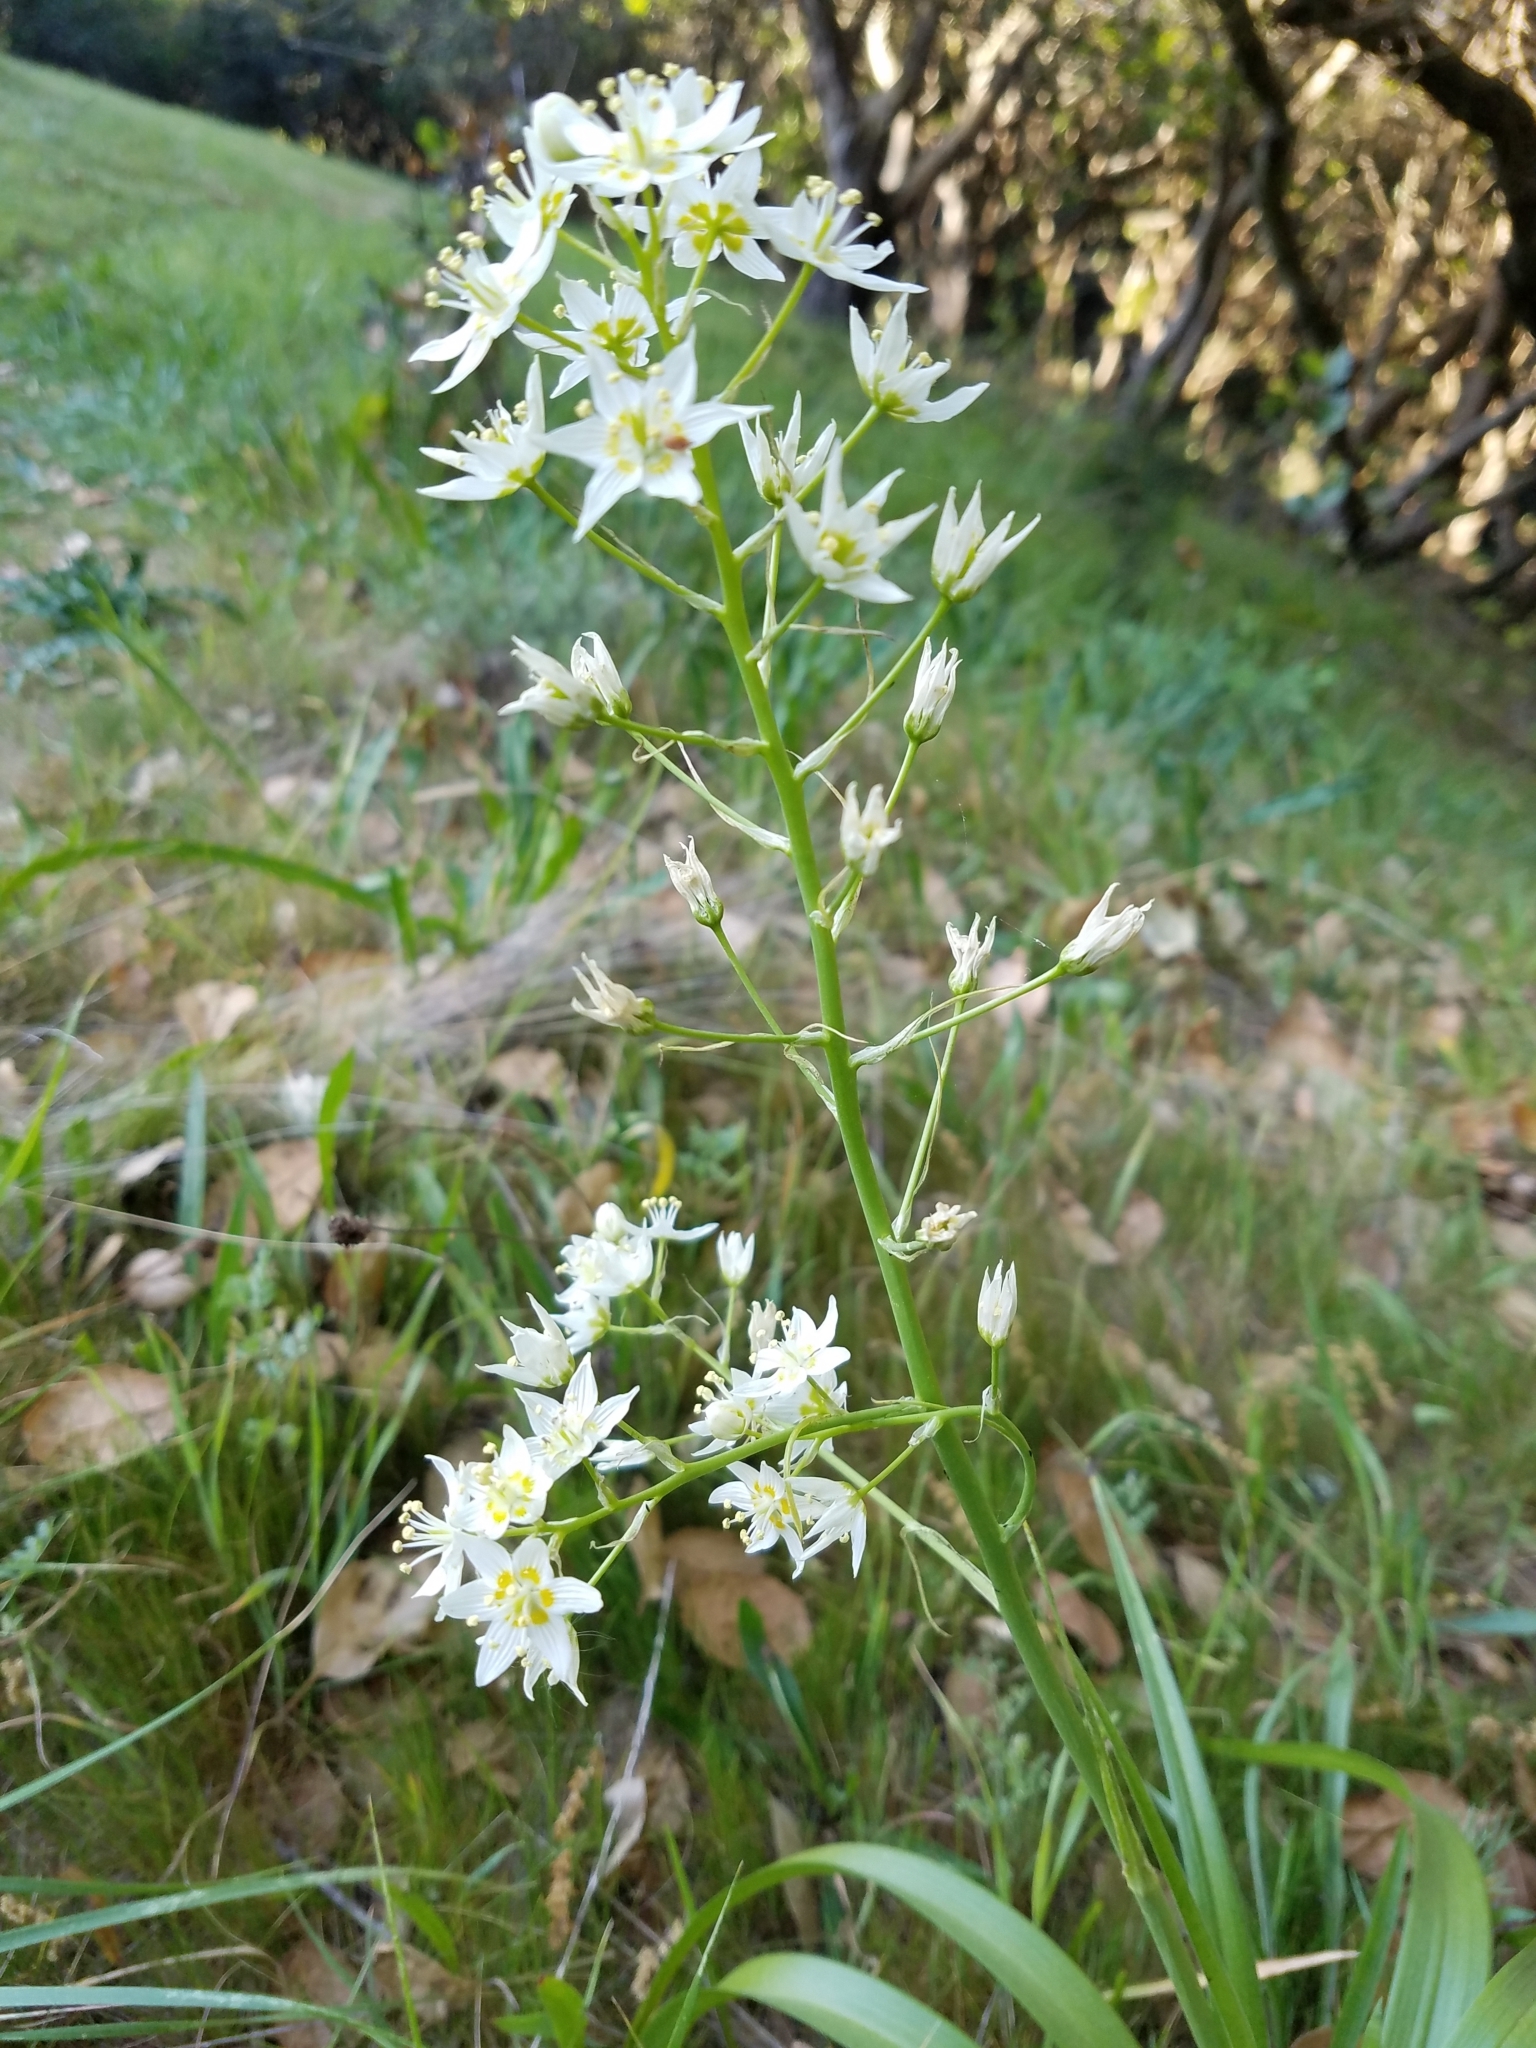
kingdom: Plantae
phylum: Tracheophyta
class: Liliopsida
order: Liliales
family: Melanthiaceae
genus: Toxicoscordion
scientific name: Toxicoscordion fremontii
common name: Fremont's death camas
